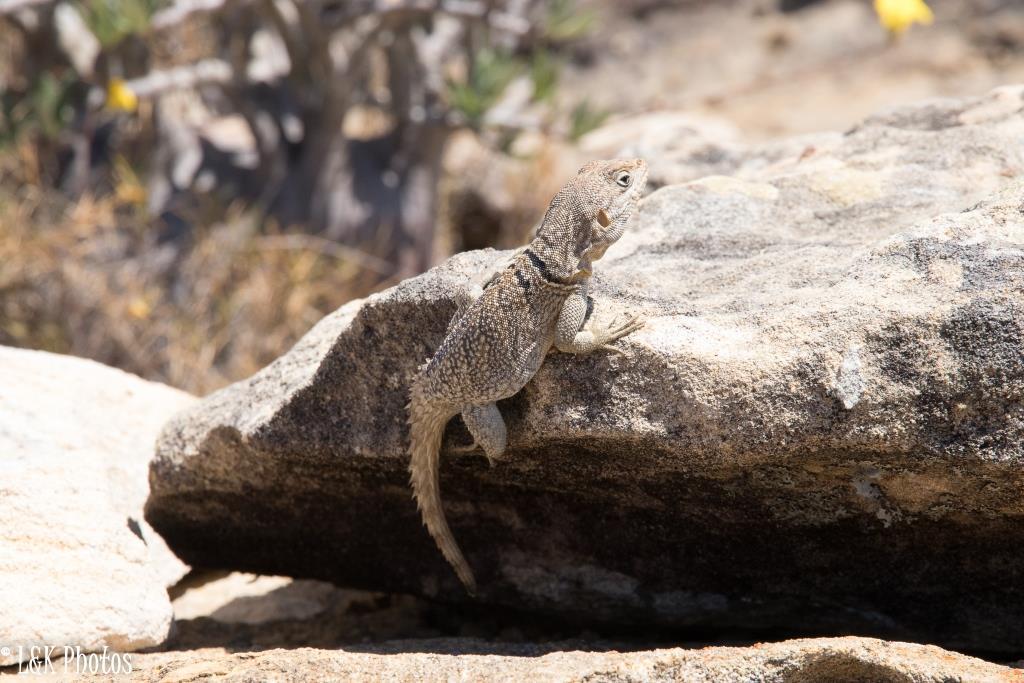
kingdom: Animalia
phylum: Chordata
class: Squamata
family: Opluridae
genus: Oplurus
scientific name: Oplurus cuvieri
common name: Cuvier's madagascar swift
